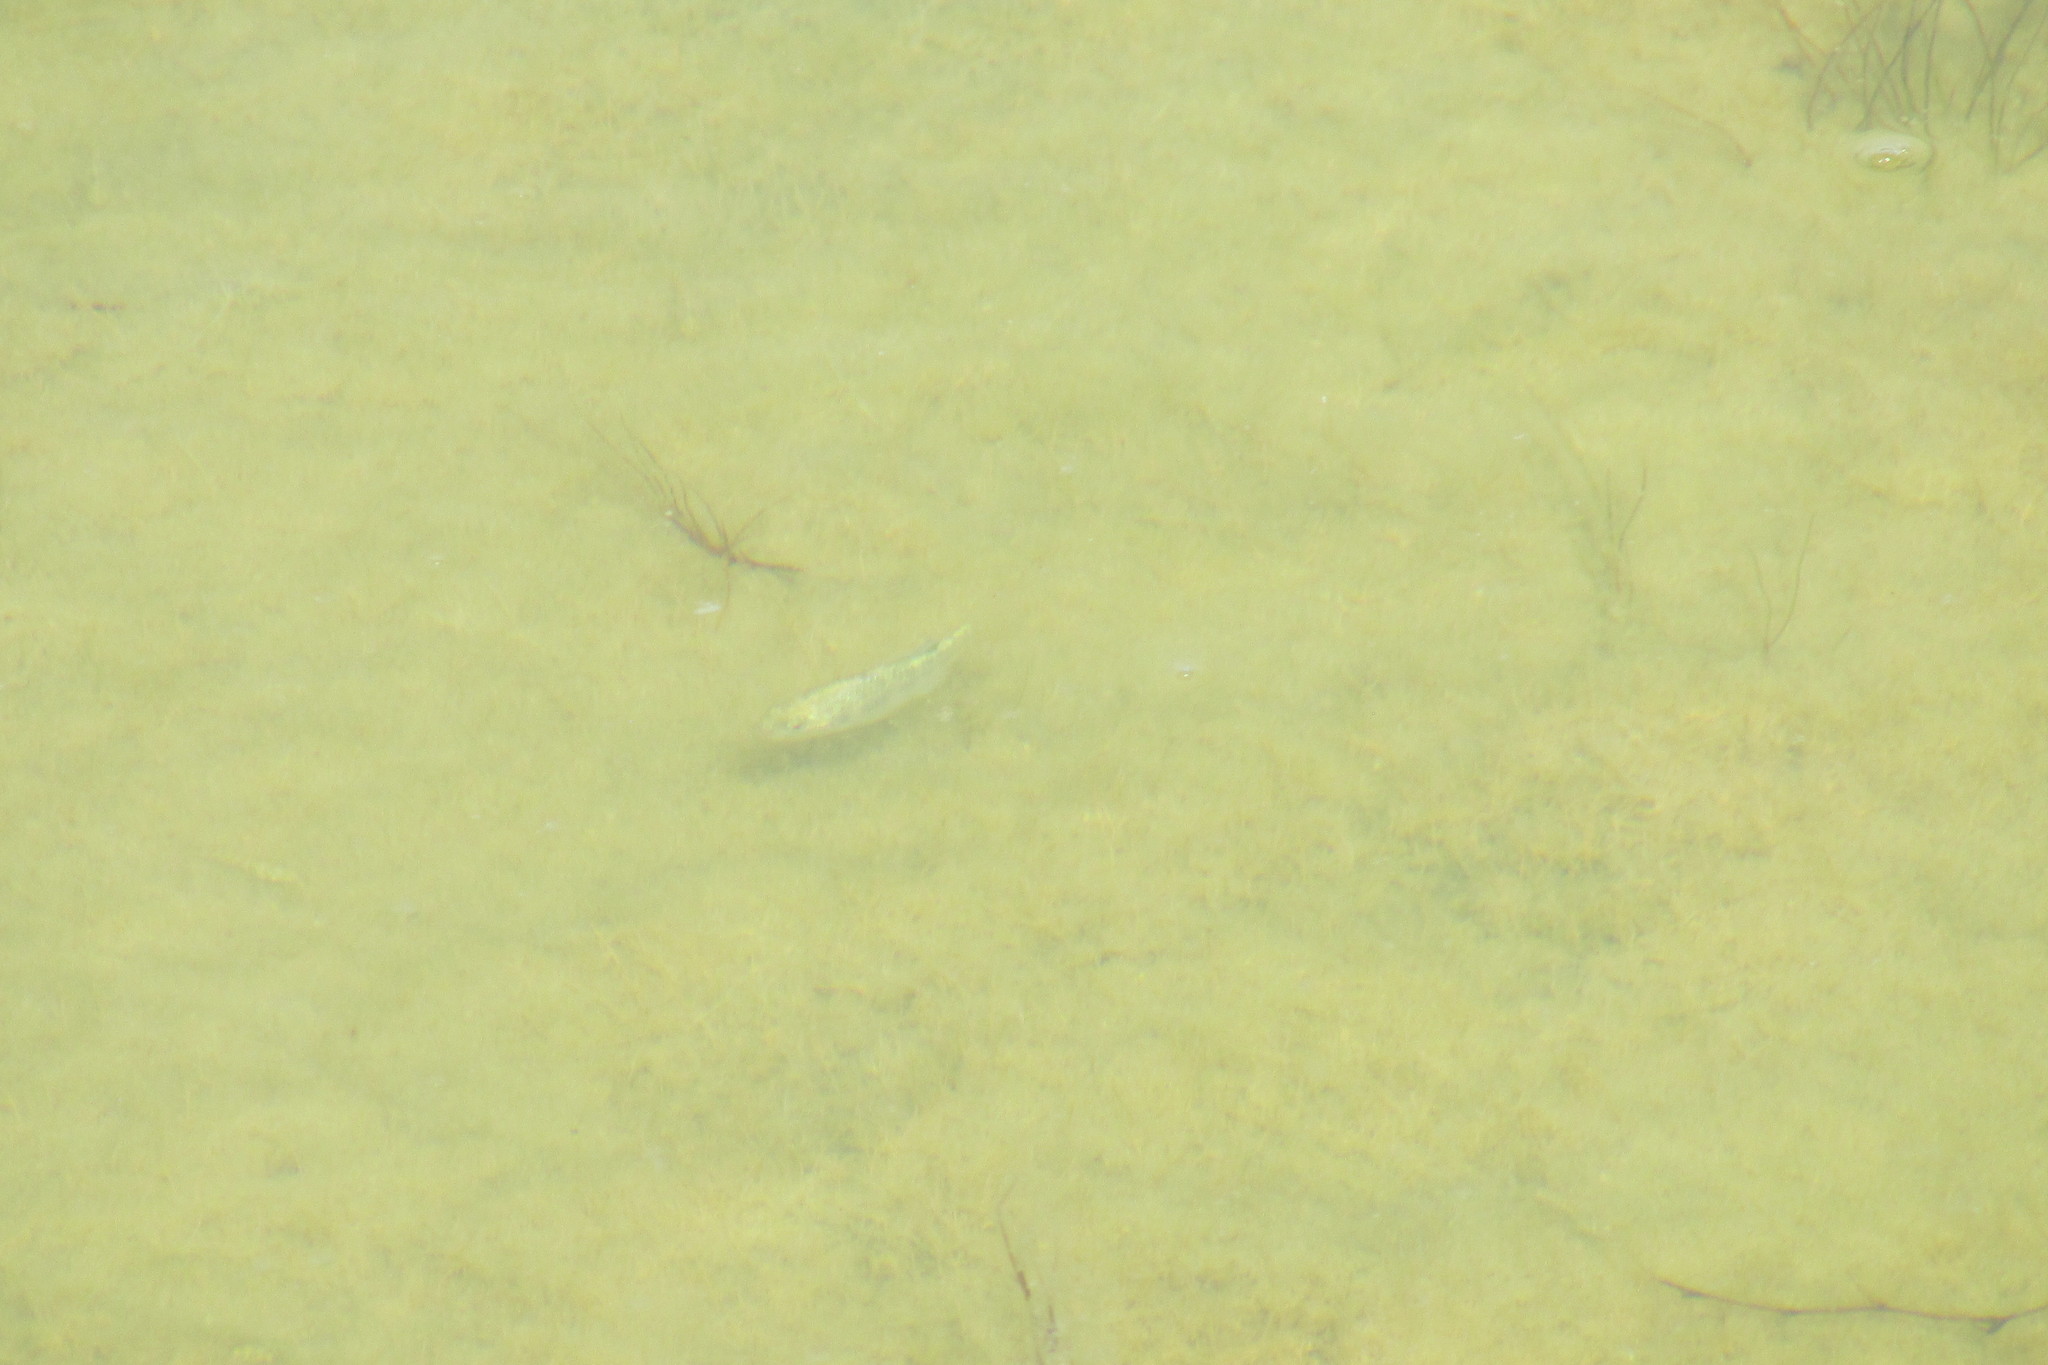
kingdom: Animalia
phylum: Chordata
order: Cyprinodontiformes
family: Cyprinodontidae
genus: Cyprinodon
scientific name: Cyprinodon eremus
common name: Sonoyta pupfish
